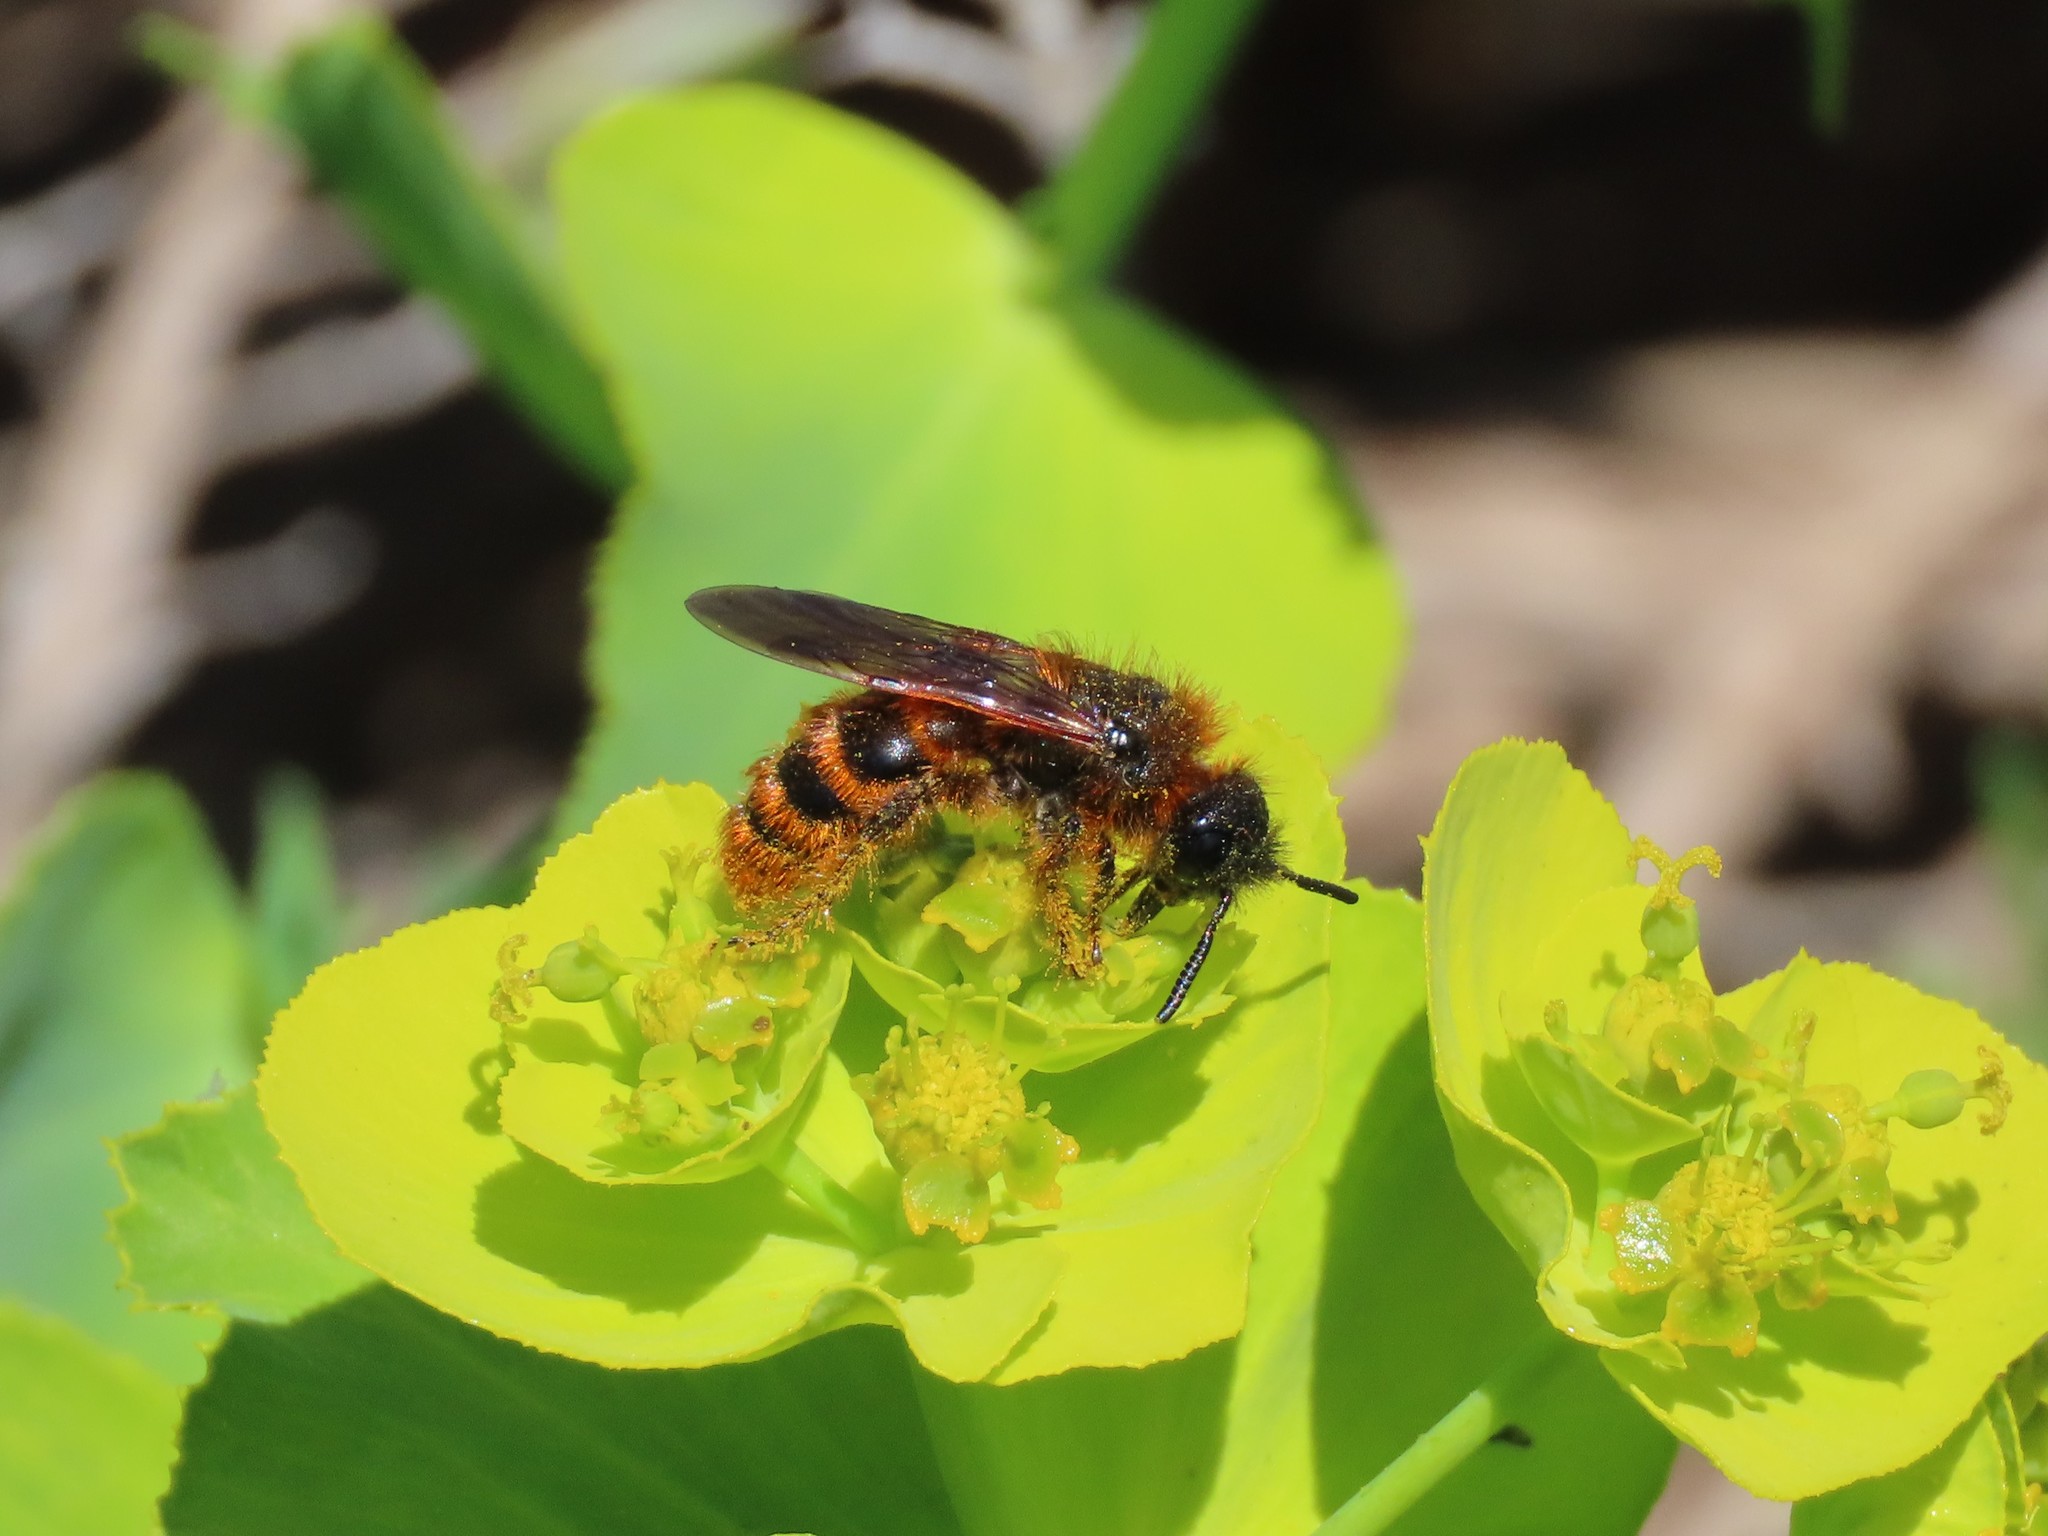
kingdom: Animalia
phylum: Arthropoda
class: Insecta
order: Hymenoptera
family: Scoliidae
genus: Dasyscolia
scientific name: Dasyscolia ciliata
